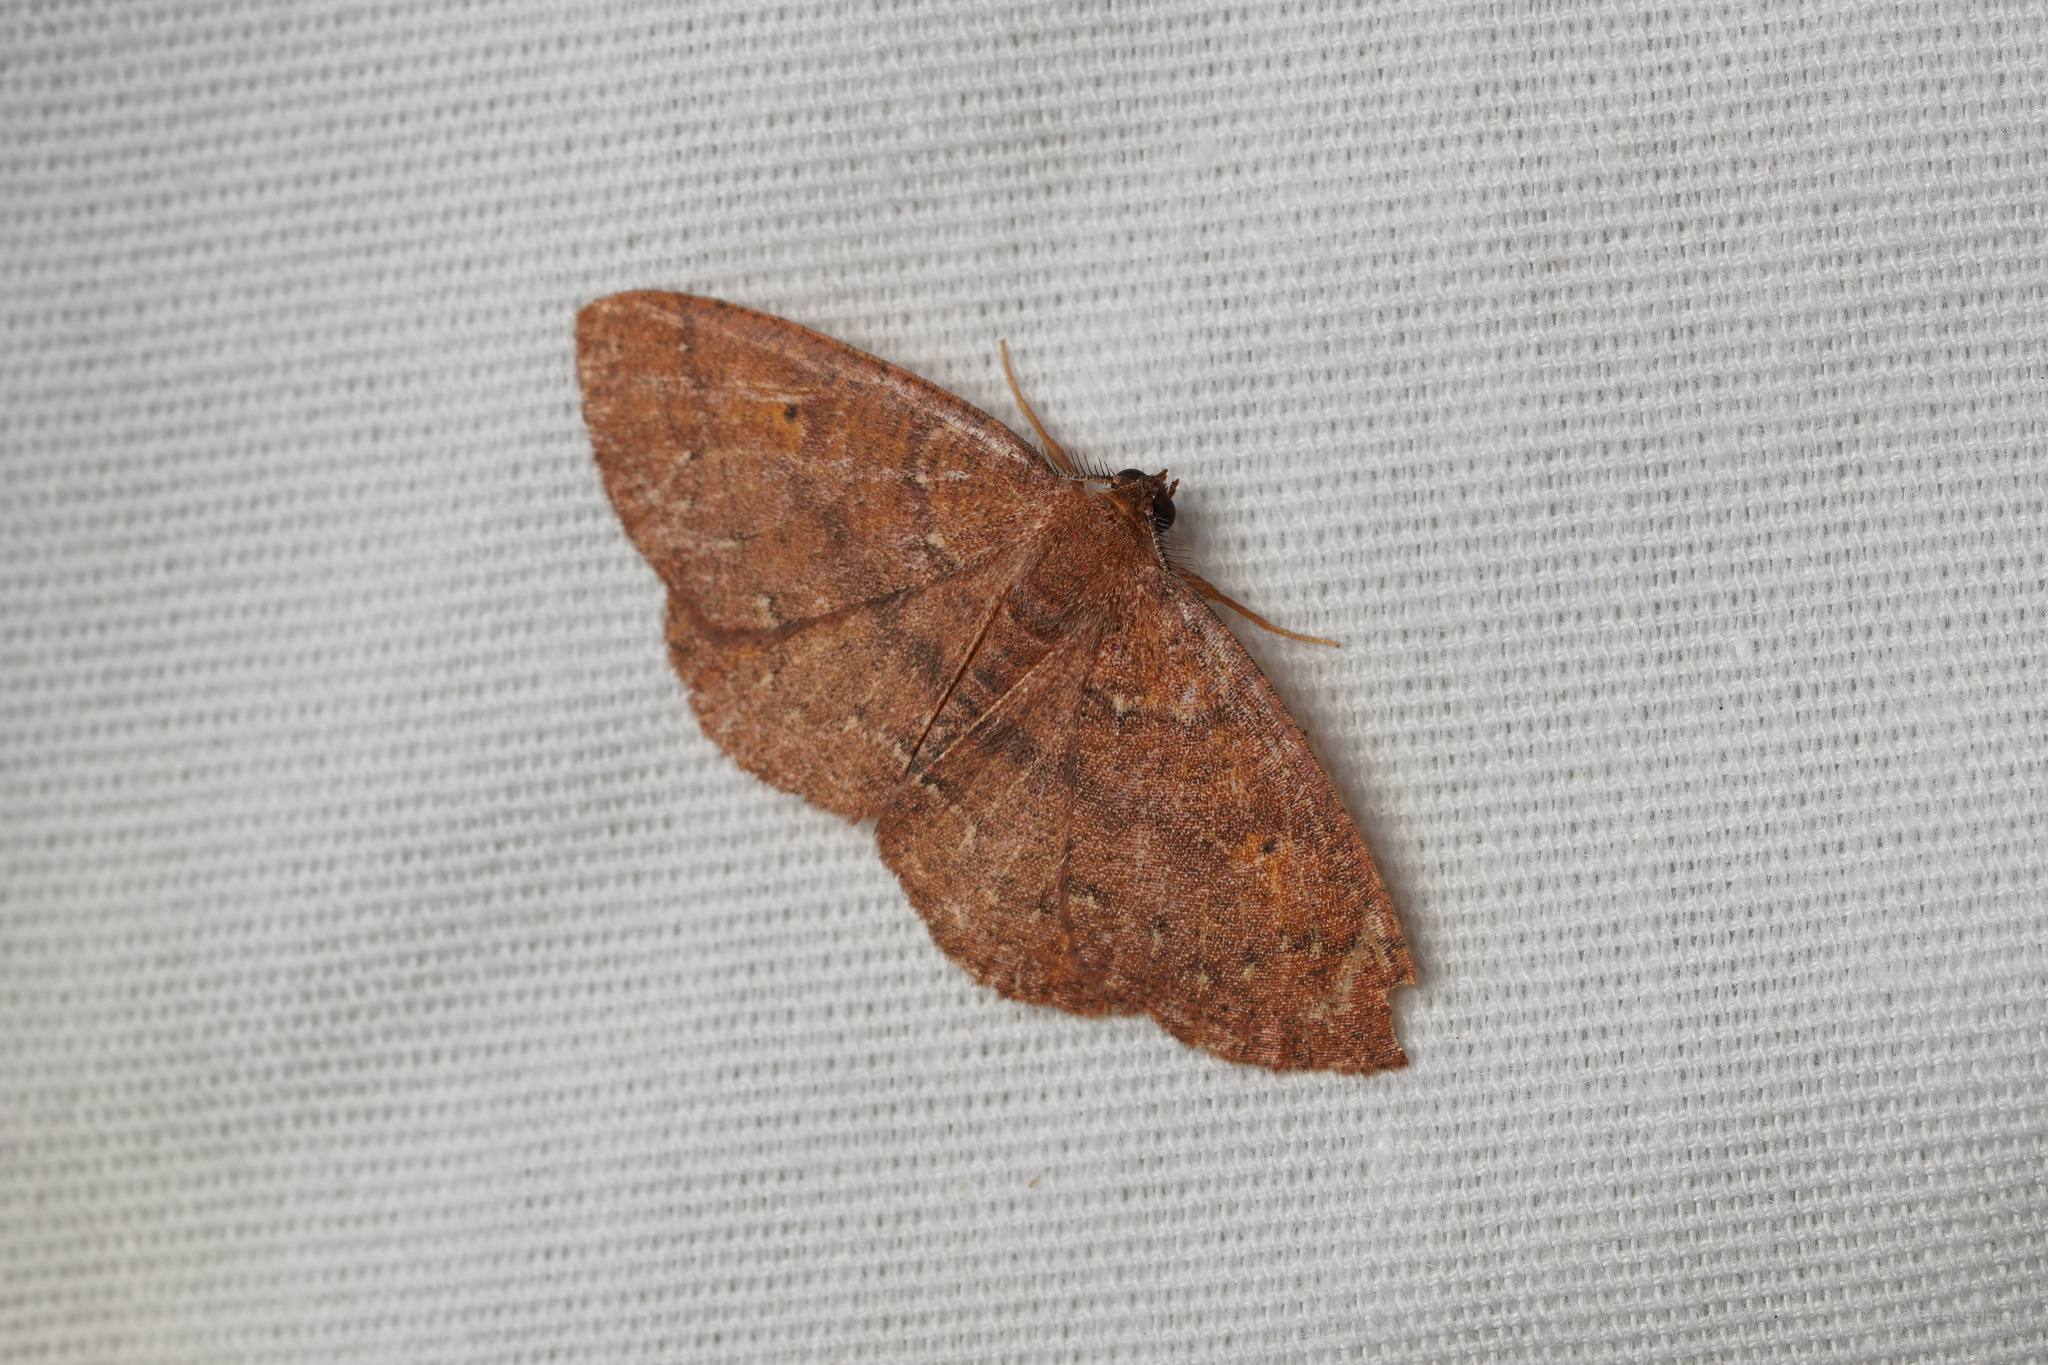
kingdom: Animalia
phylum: Arthropoda
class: Insecta
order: Lepidoptera
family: Geometridae
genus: Ilexia
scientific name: Ilexia intractata
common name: Black-dotted ruddy moth
